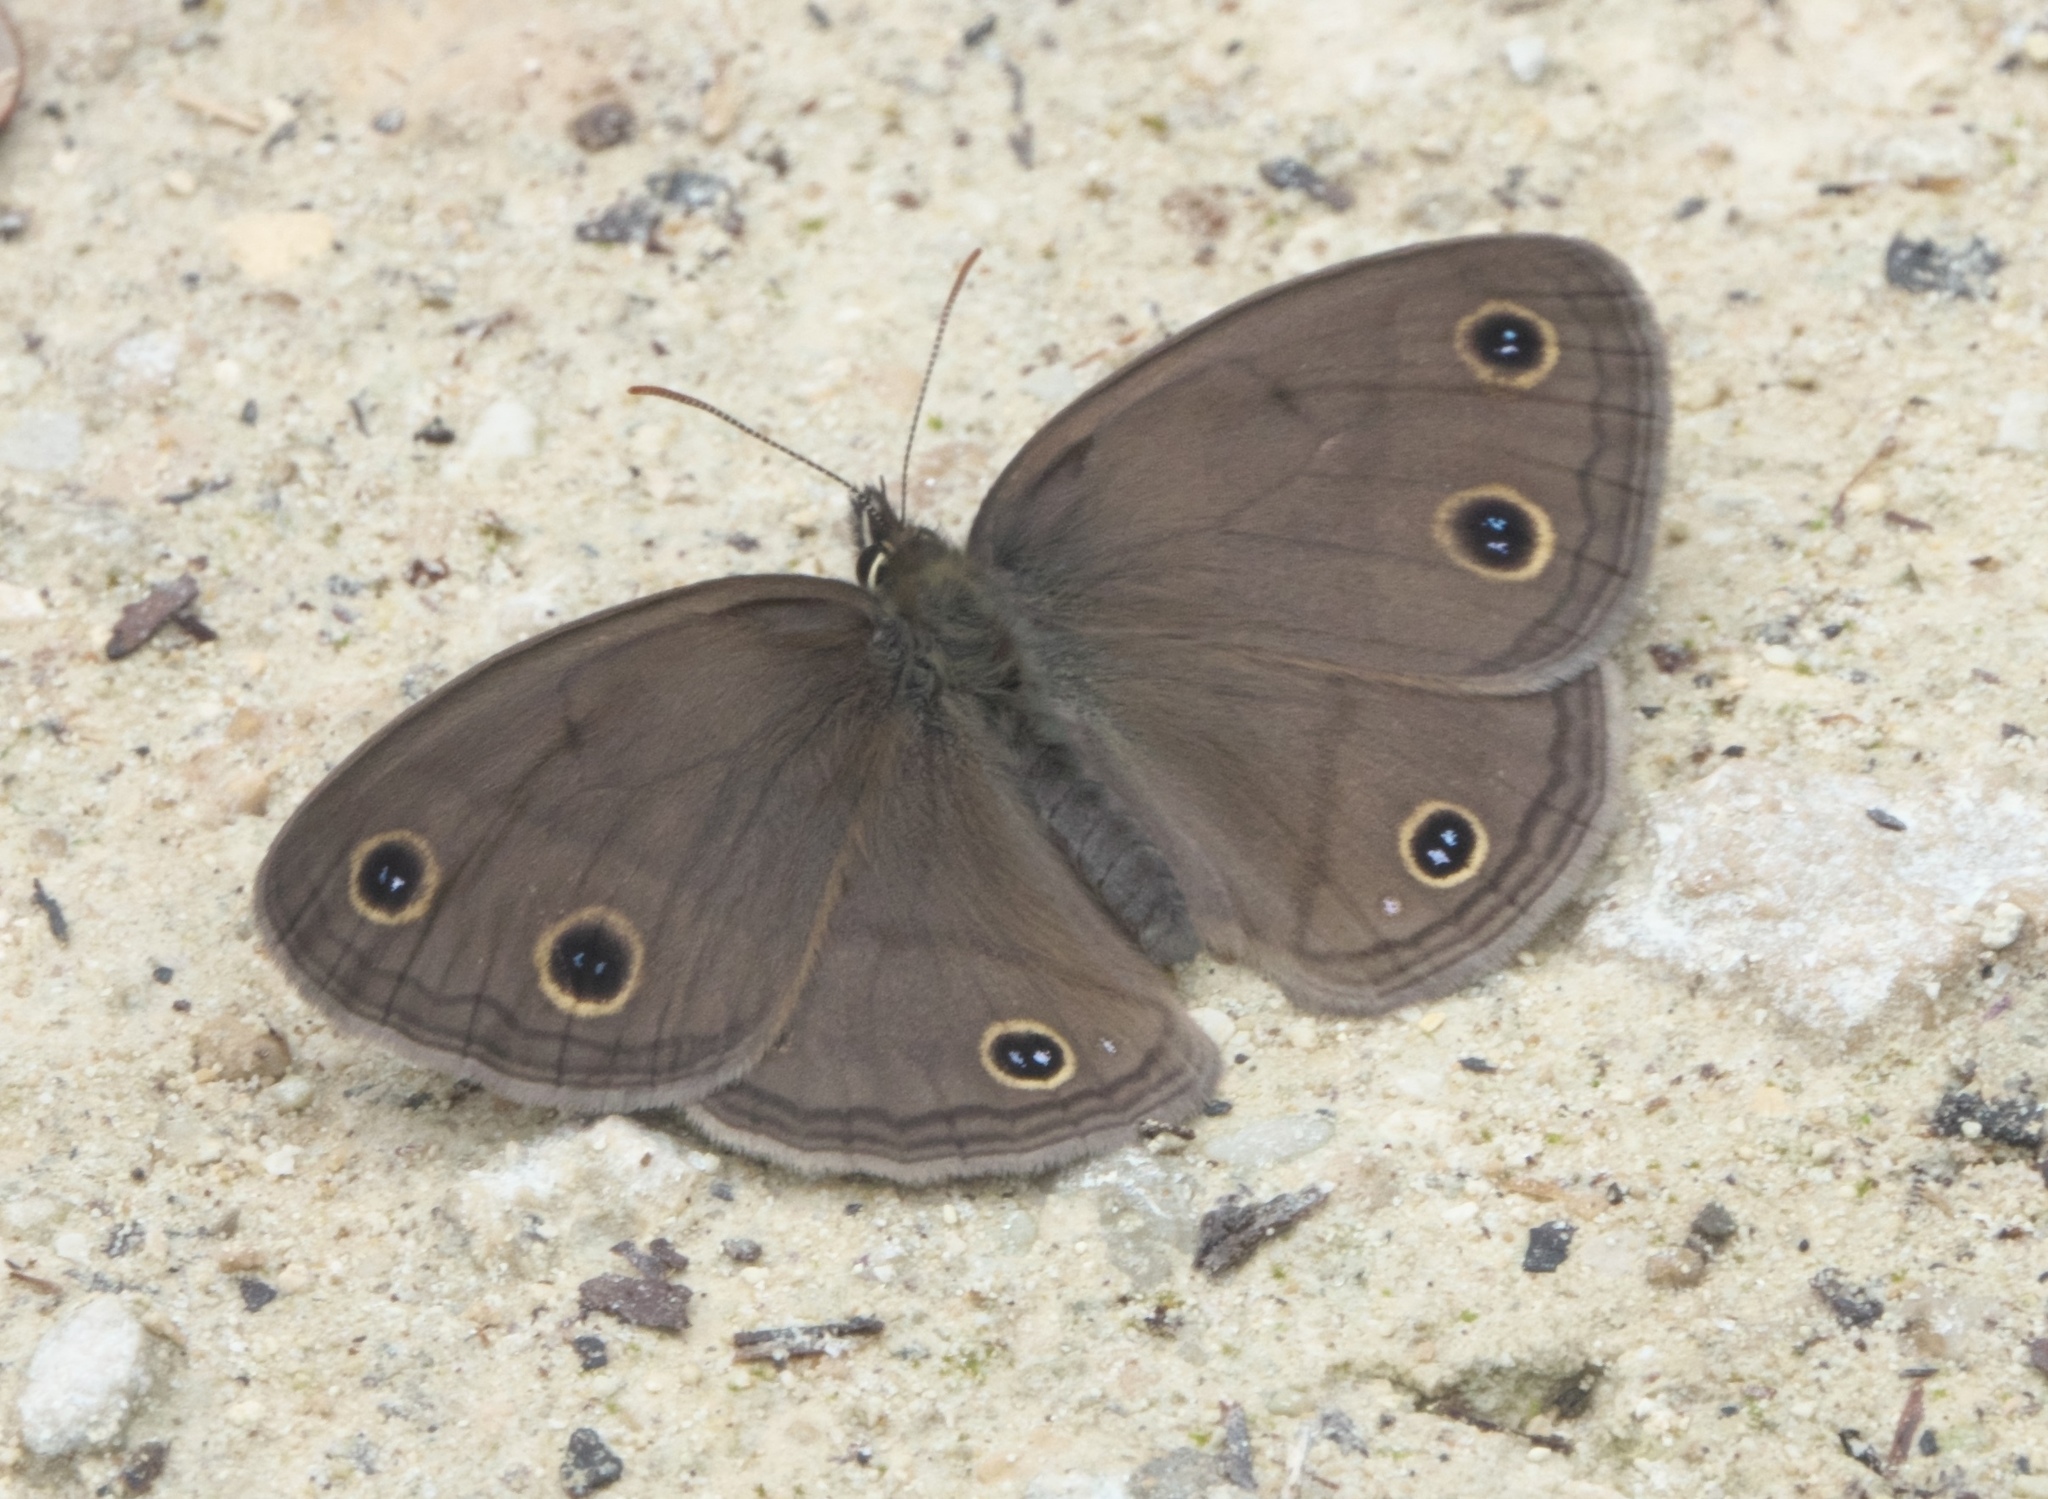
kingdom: Animalia
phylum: Arthropoda
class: Insecta
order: Lepidoptera
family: Nymphalidae
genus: Euptychia
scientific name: Euptychia cymela
